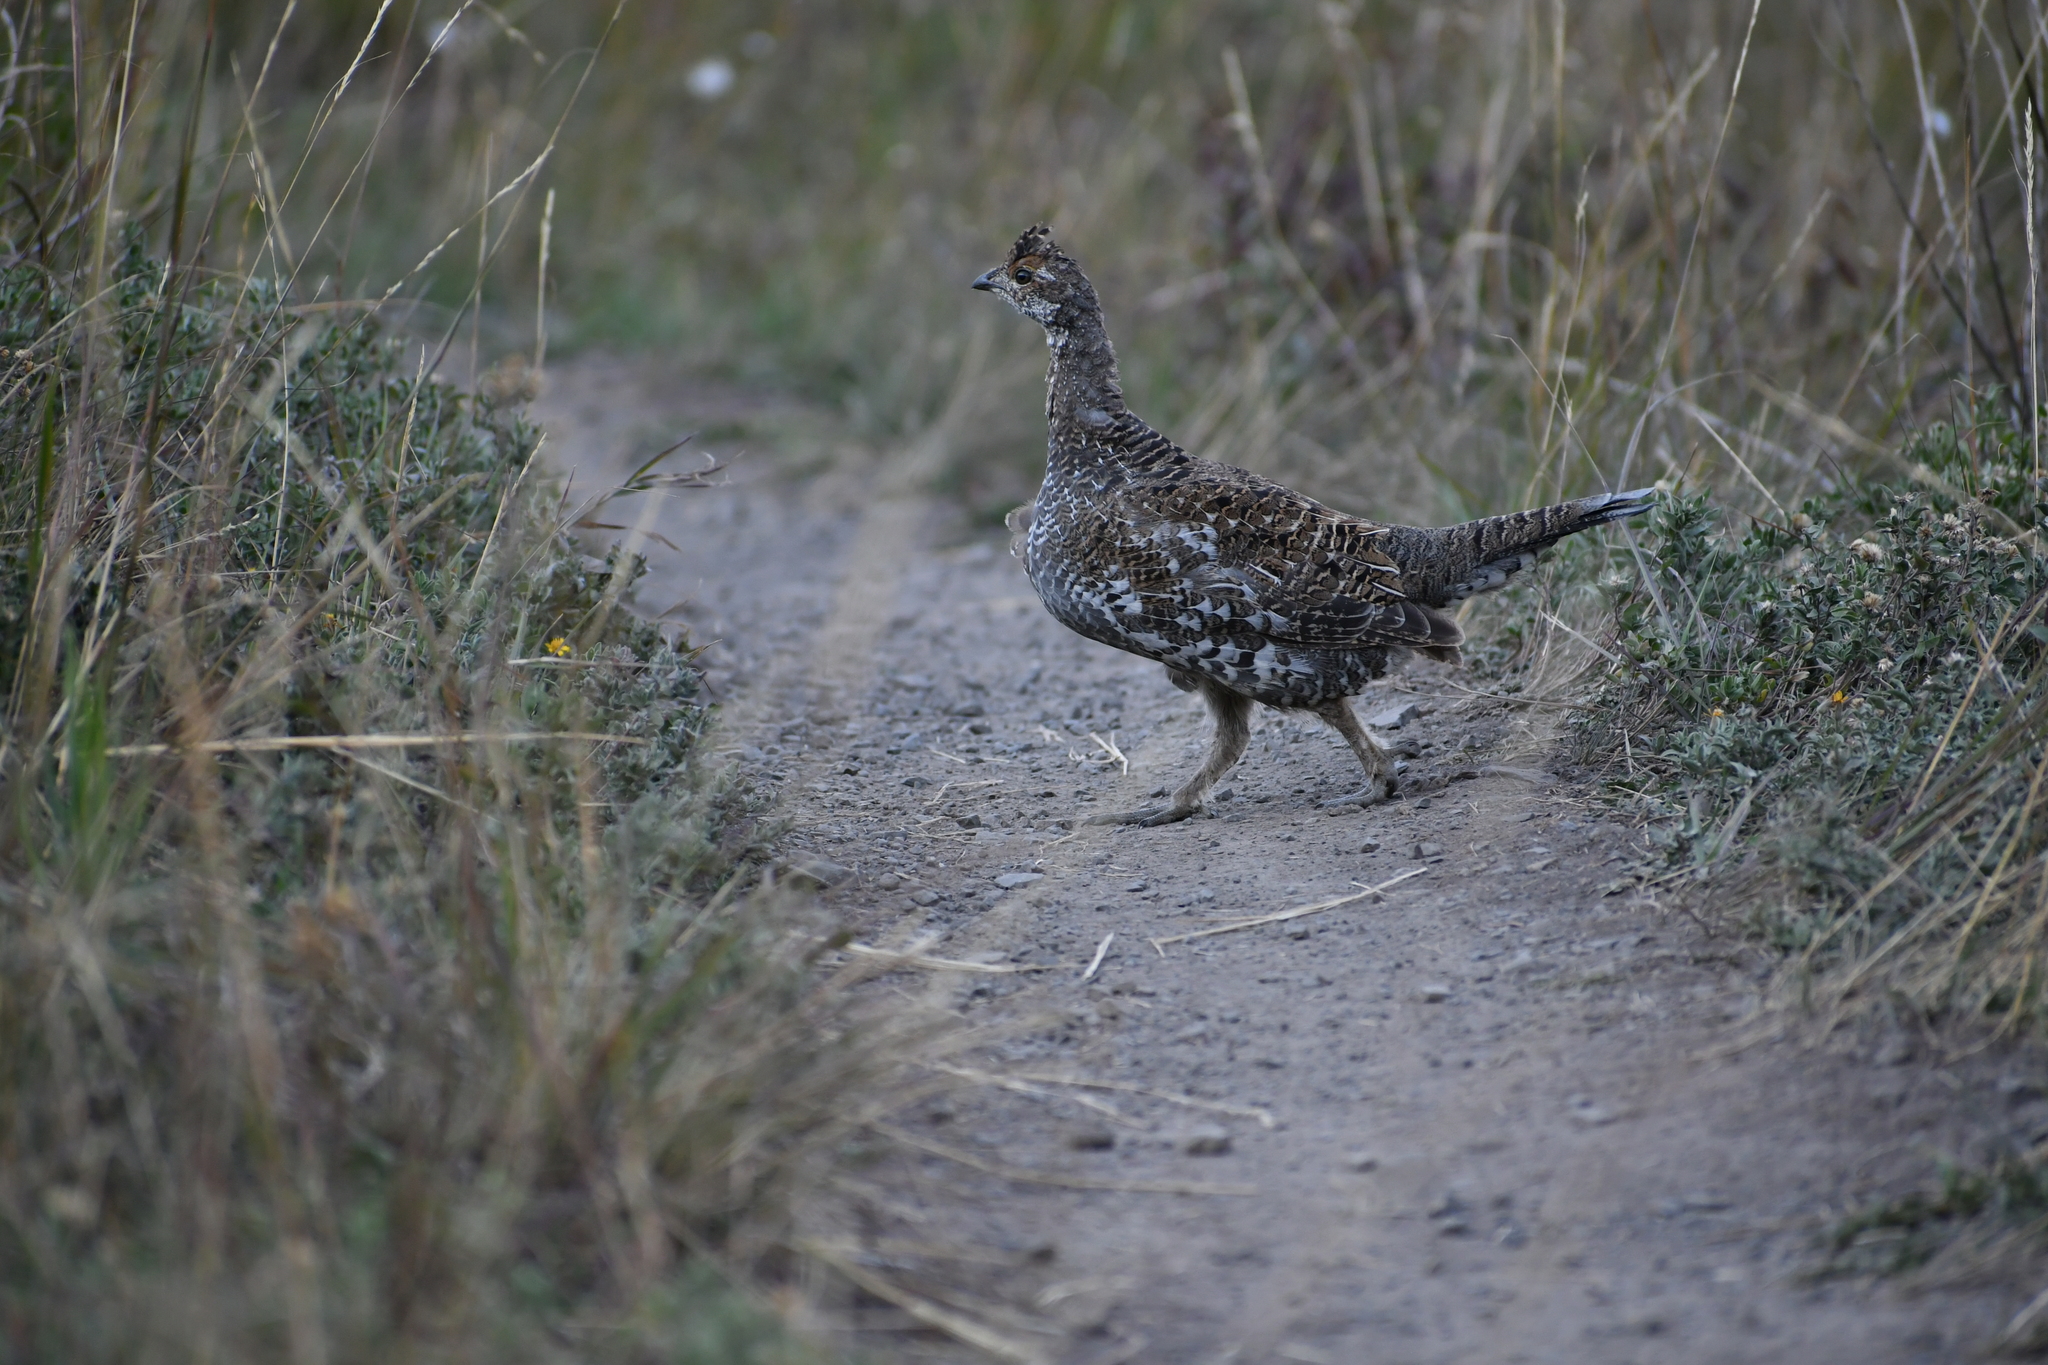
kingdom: Animalia
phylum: Chordata
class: Aves
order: Galliformes
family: Phasianidae
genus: Dendragapus
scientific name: Dendragapus obscurus
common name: Dusky grouse
